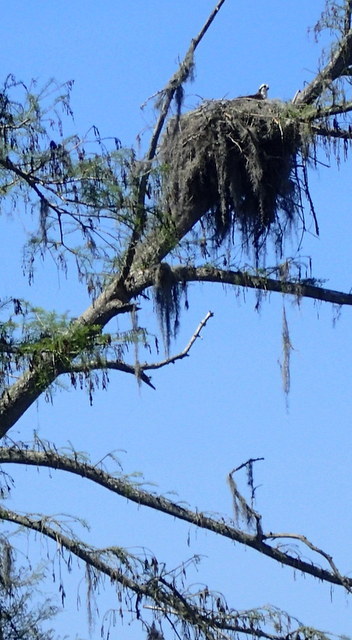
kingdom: Animalia
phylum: Chordata
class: Aves
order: Accipitriformes
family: Pandionidae
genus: Pandion
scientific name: Pandion haliaetus
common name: Osprey
